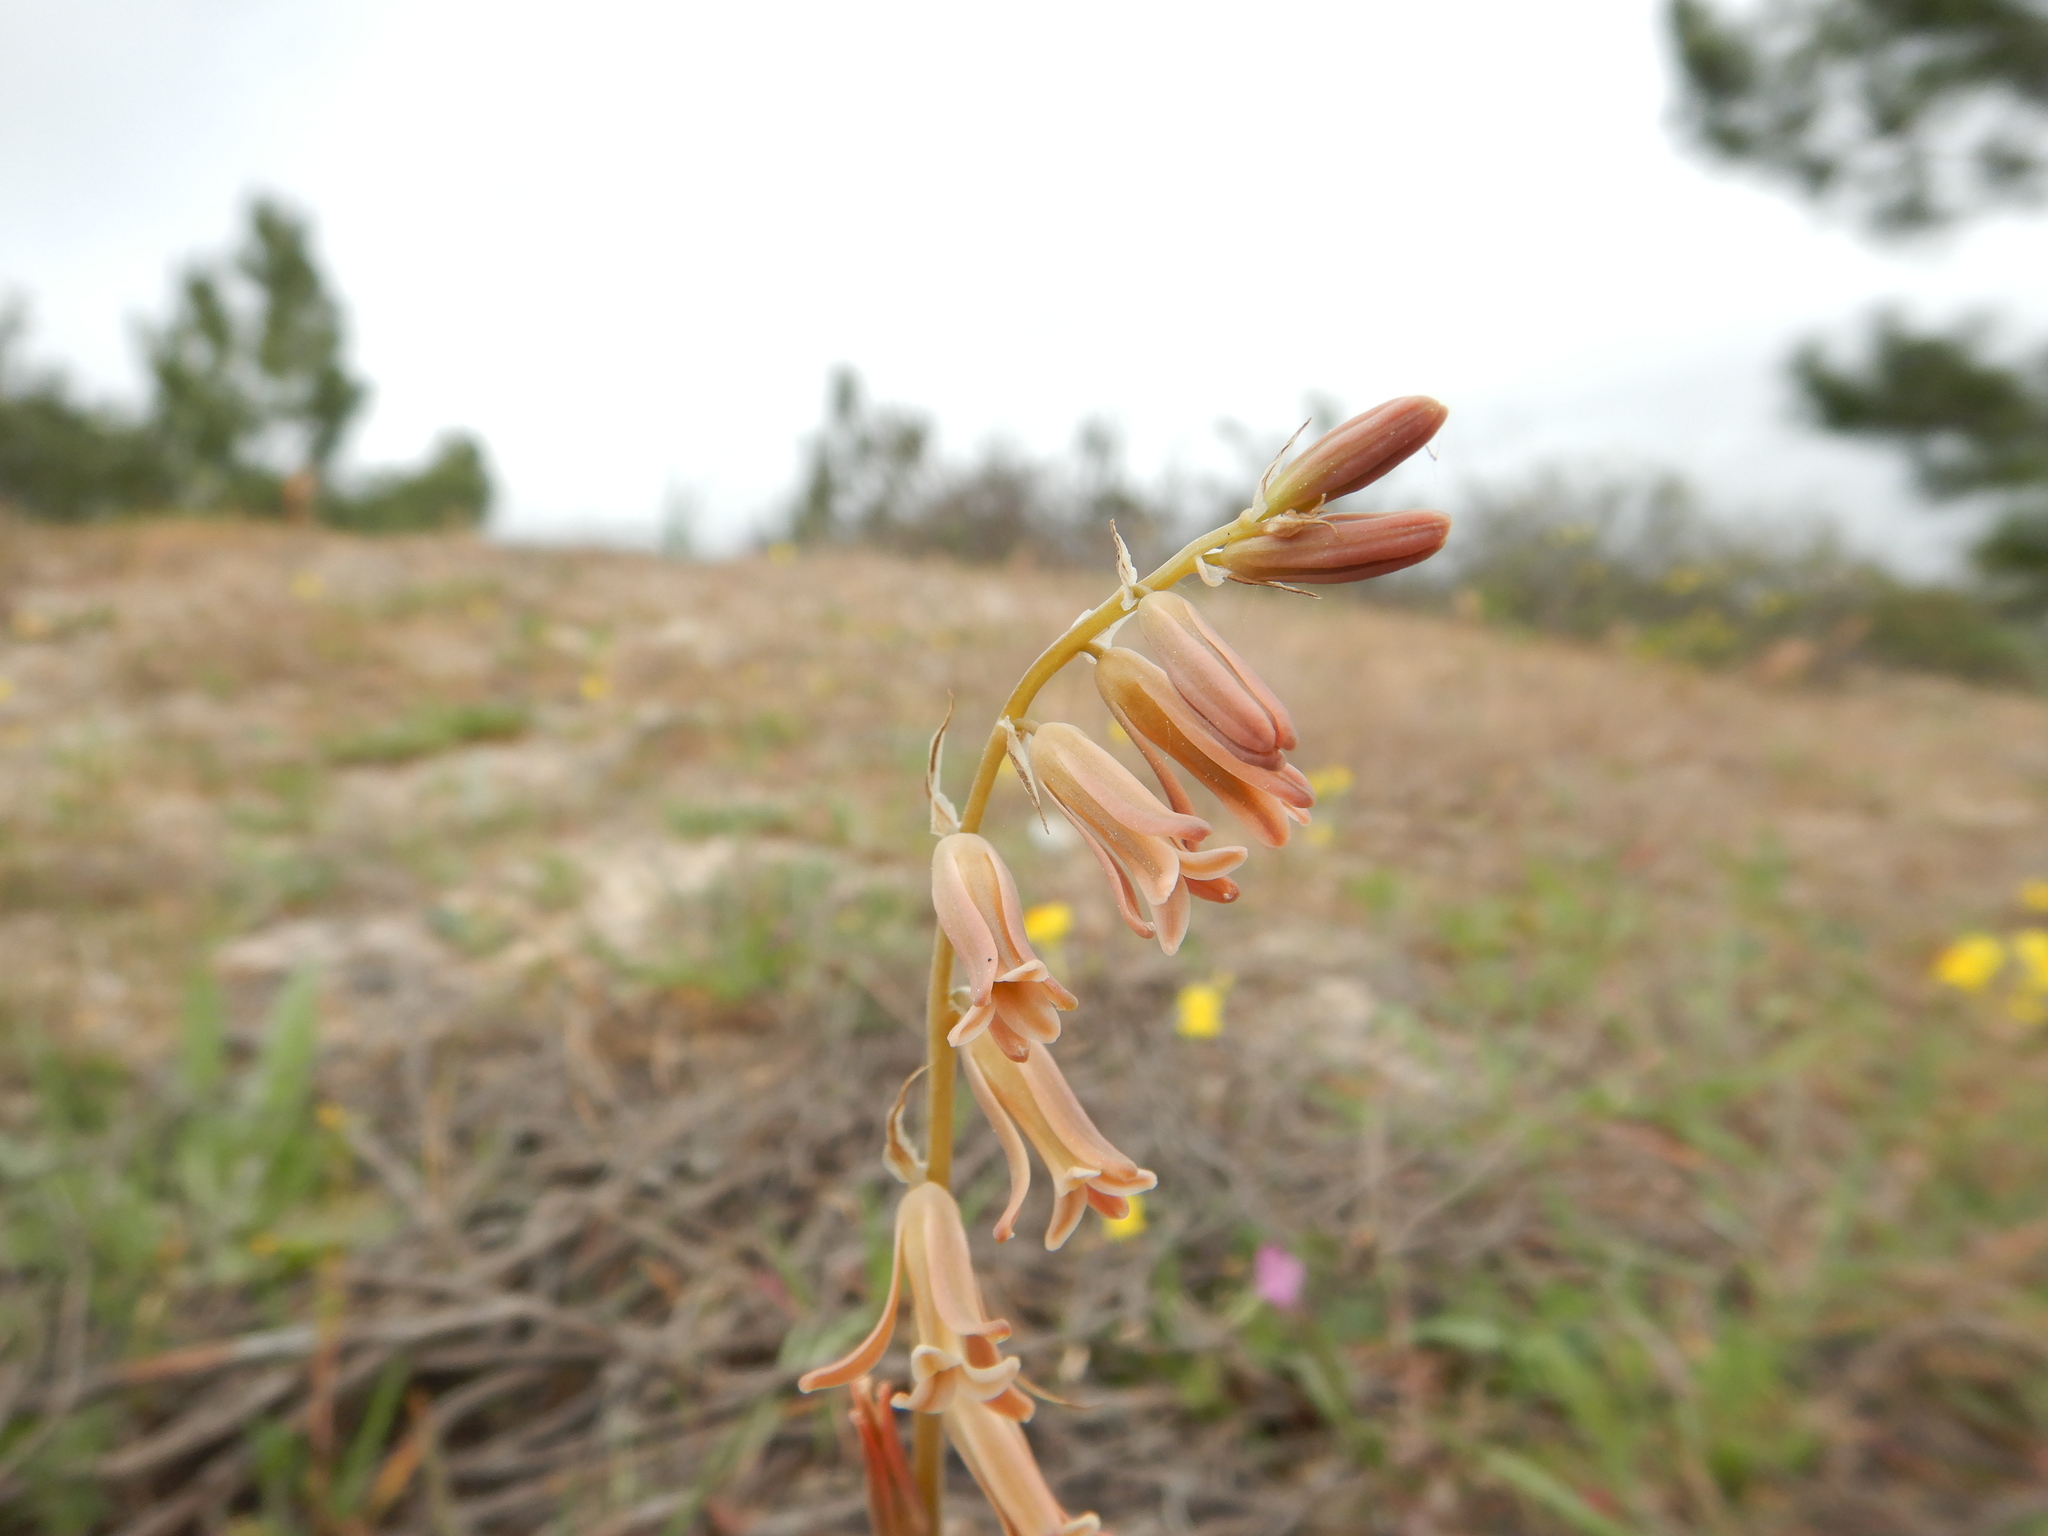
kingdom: Plantae
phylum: Tracheophyta
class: Liliopsida
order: Asparagales
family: Asparagaceae
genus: Dipcadi
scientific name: Dipcadi serotinum
